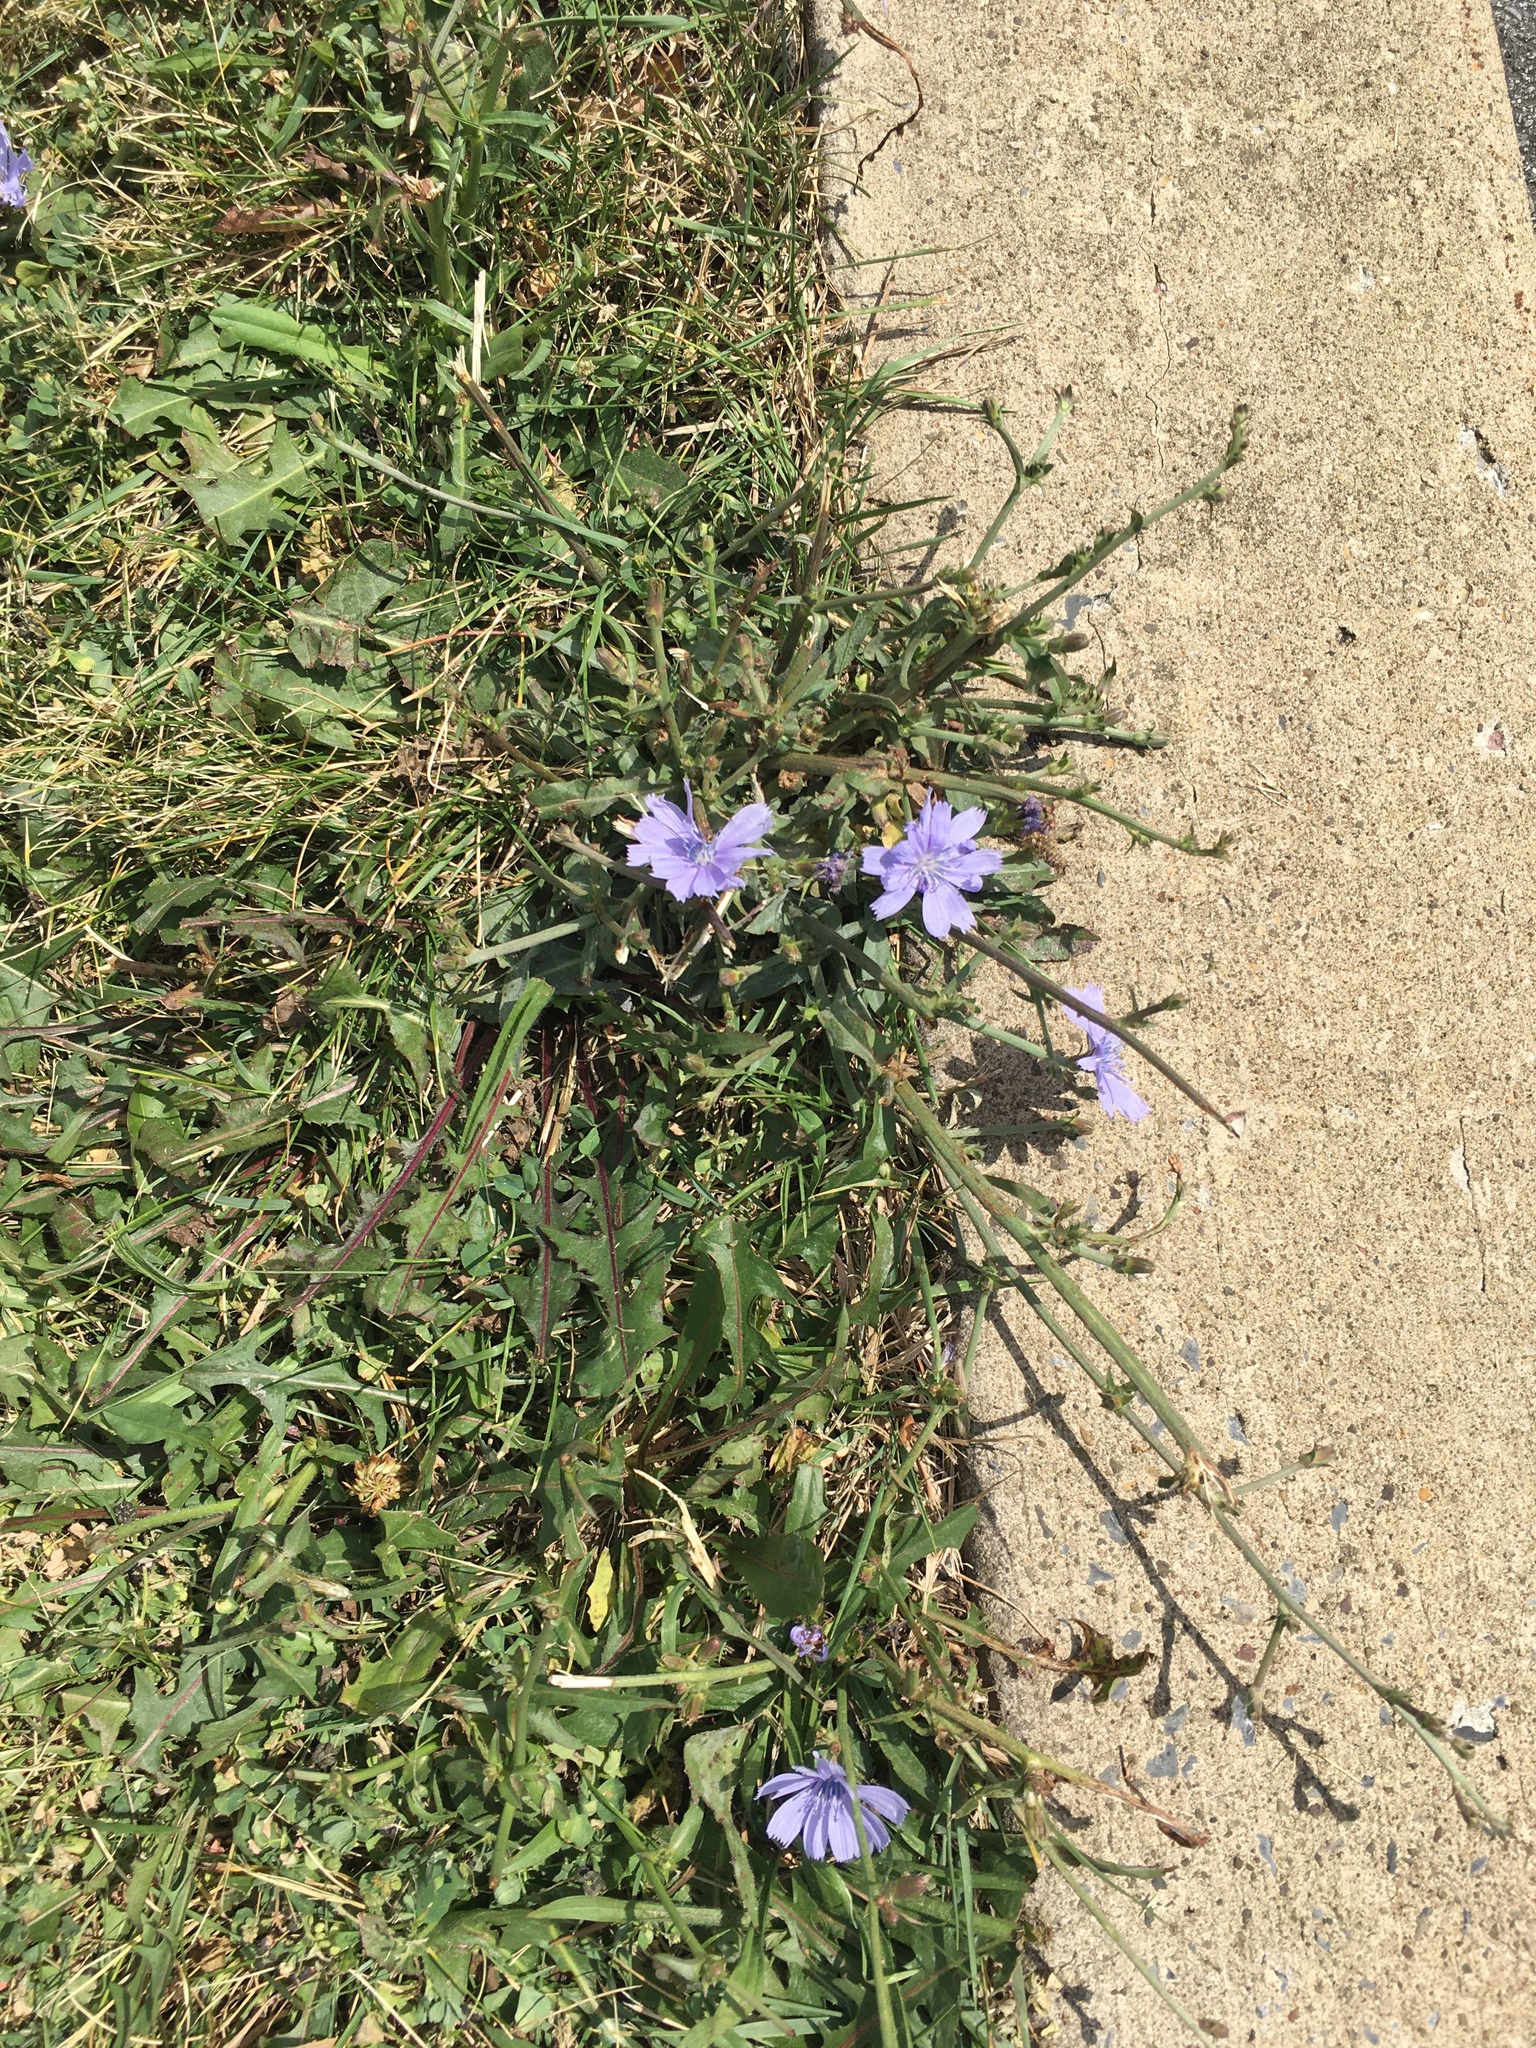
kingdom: Plantae
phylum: Tracheophyta
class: Magnoliopsida
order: Asterales
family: Asteraceae
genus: Cichorium
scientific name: Cichorium intybus
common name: Chicory
